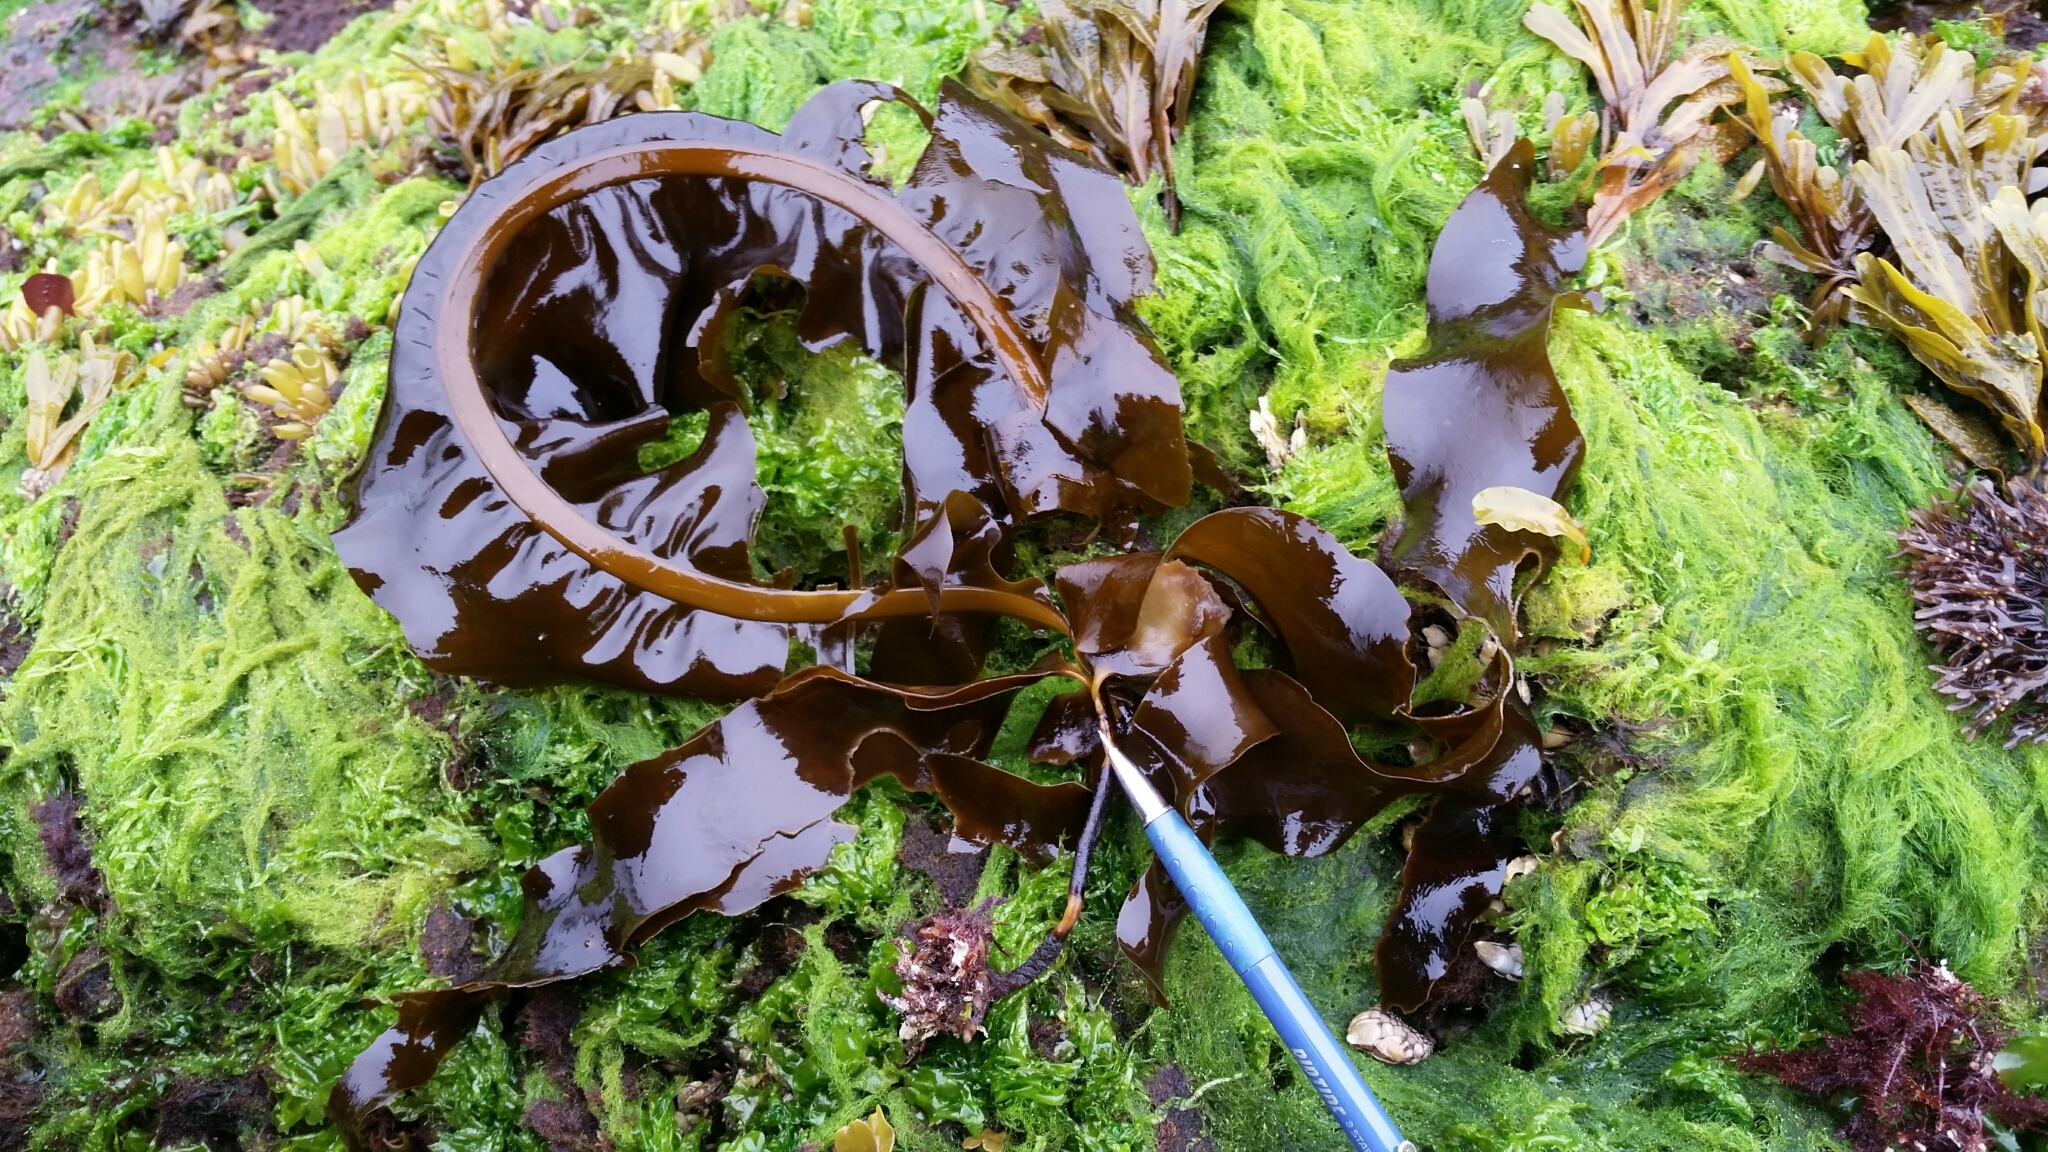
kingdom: Chromista
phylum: Ochrophyta
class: Phaeophyceae
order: Laminariales
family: Alariaceae
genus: Alaria
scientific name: Alaria marginata
